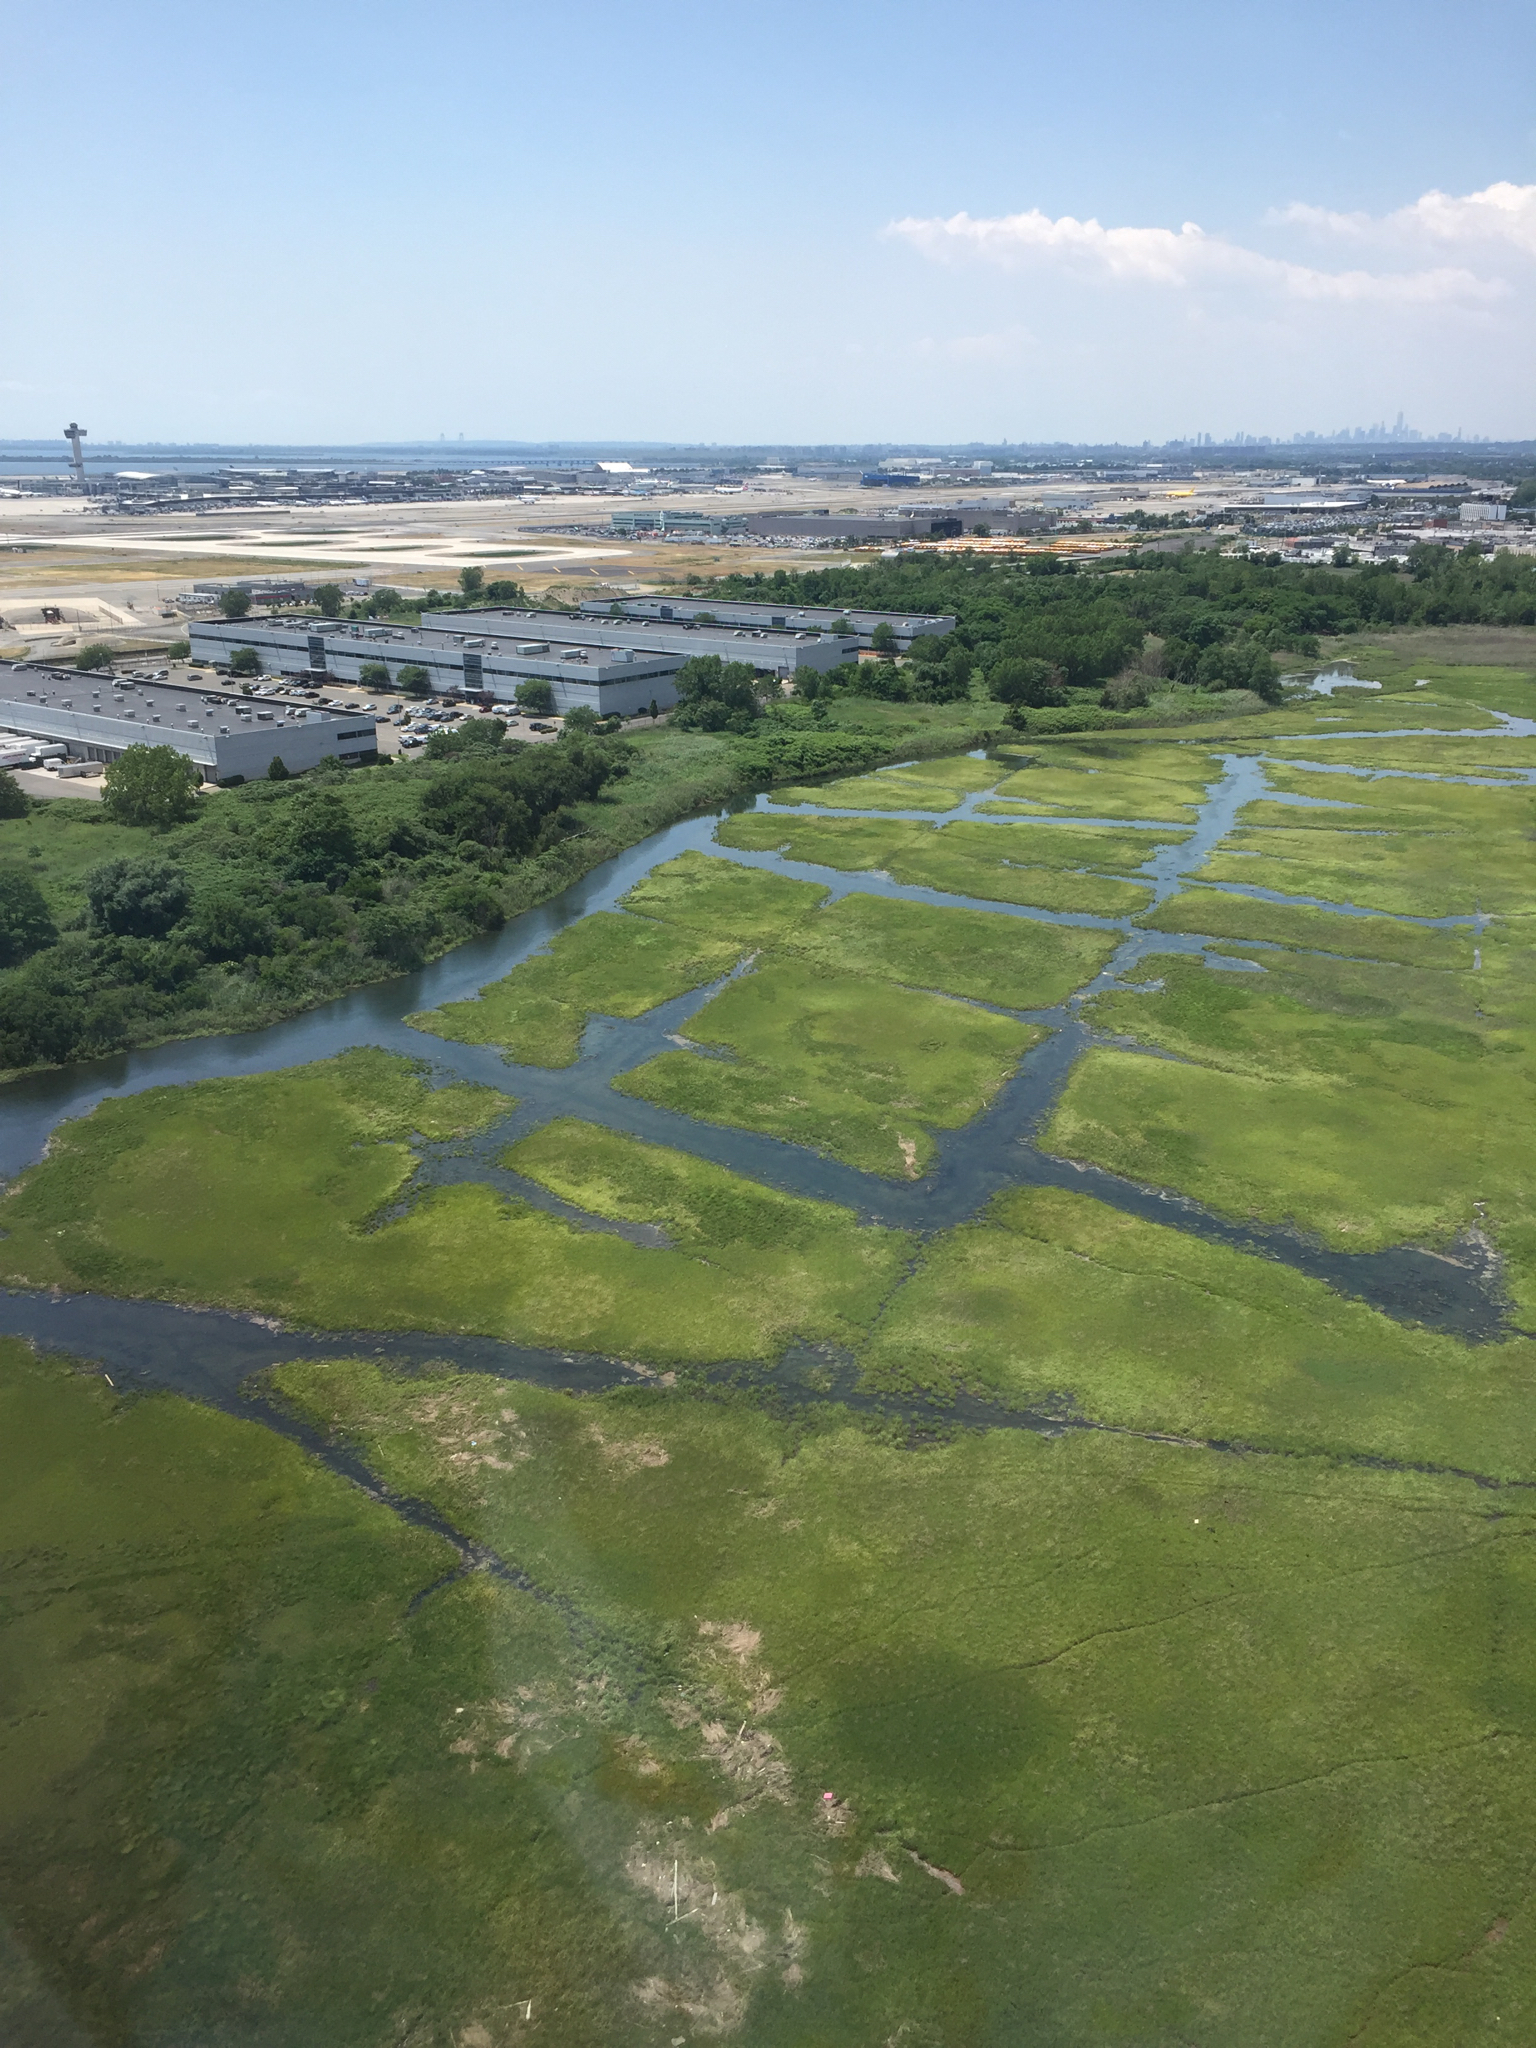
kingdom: Plantae
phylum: Tracheophyta
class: Liliopsida
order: Poales
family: Poaceae
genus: Phragmites
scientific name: Phragmites australis
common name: Common reed
